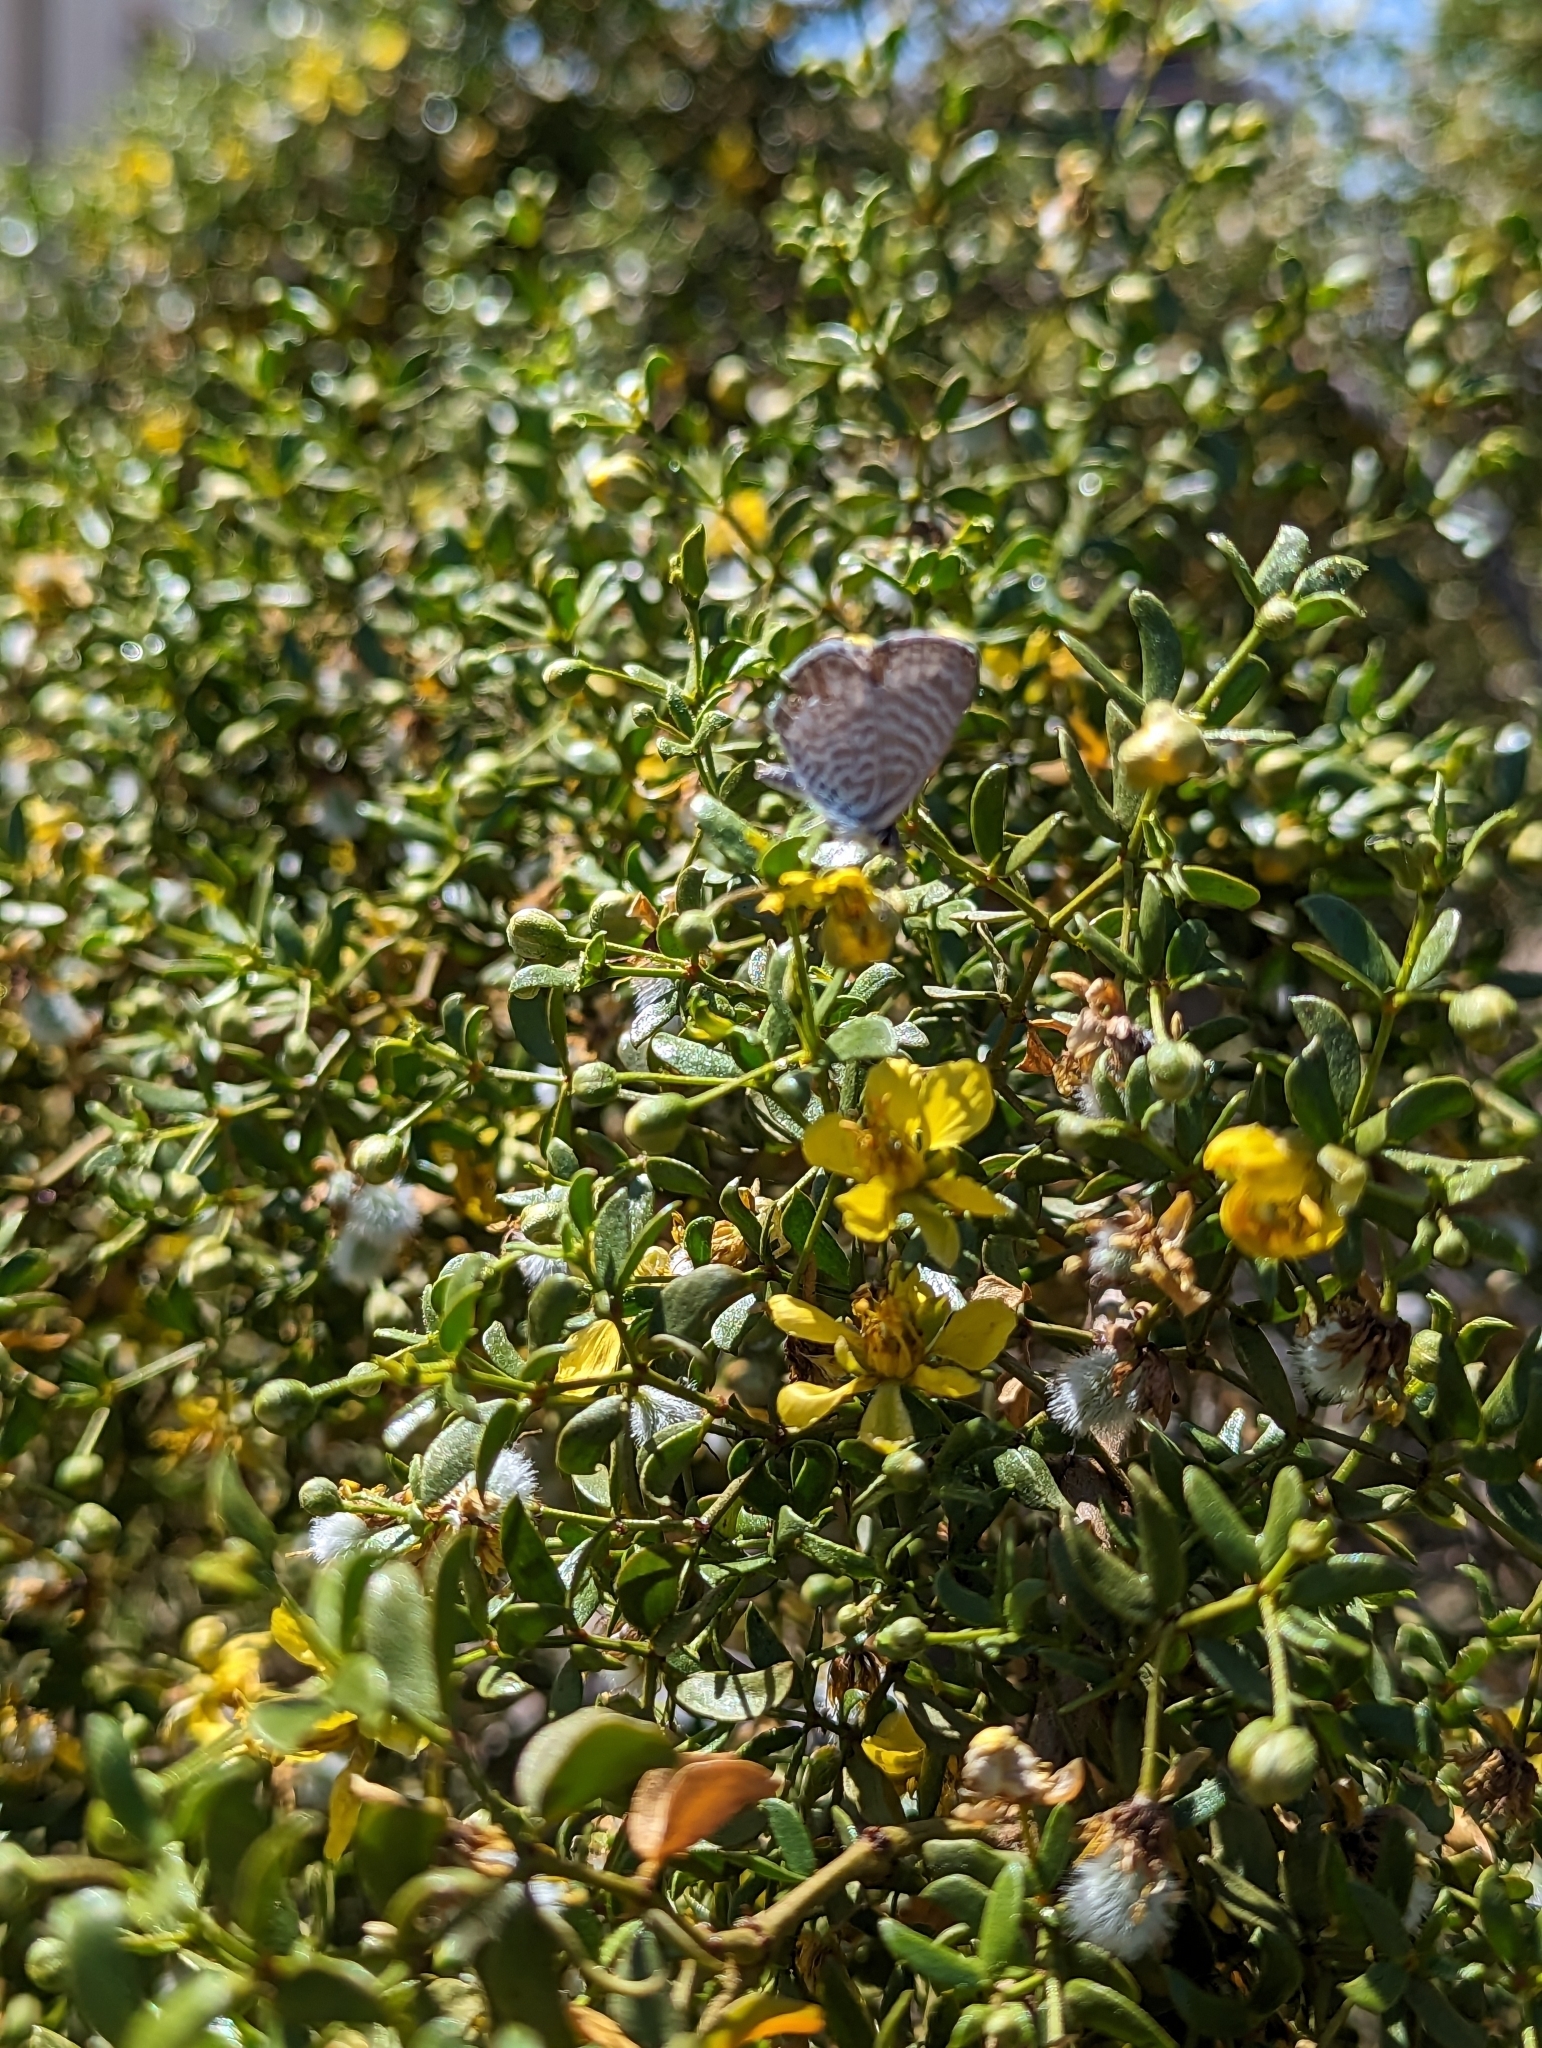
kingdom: Animalia
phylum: Arthropoda
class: Insecta
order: Lepidoptera
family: Lycaenidae
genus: Leptotes
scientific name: Leptotes marina
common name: Marine blue
